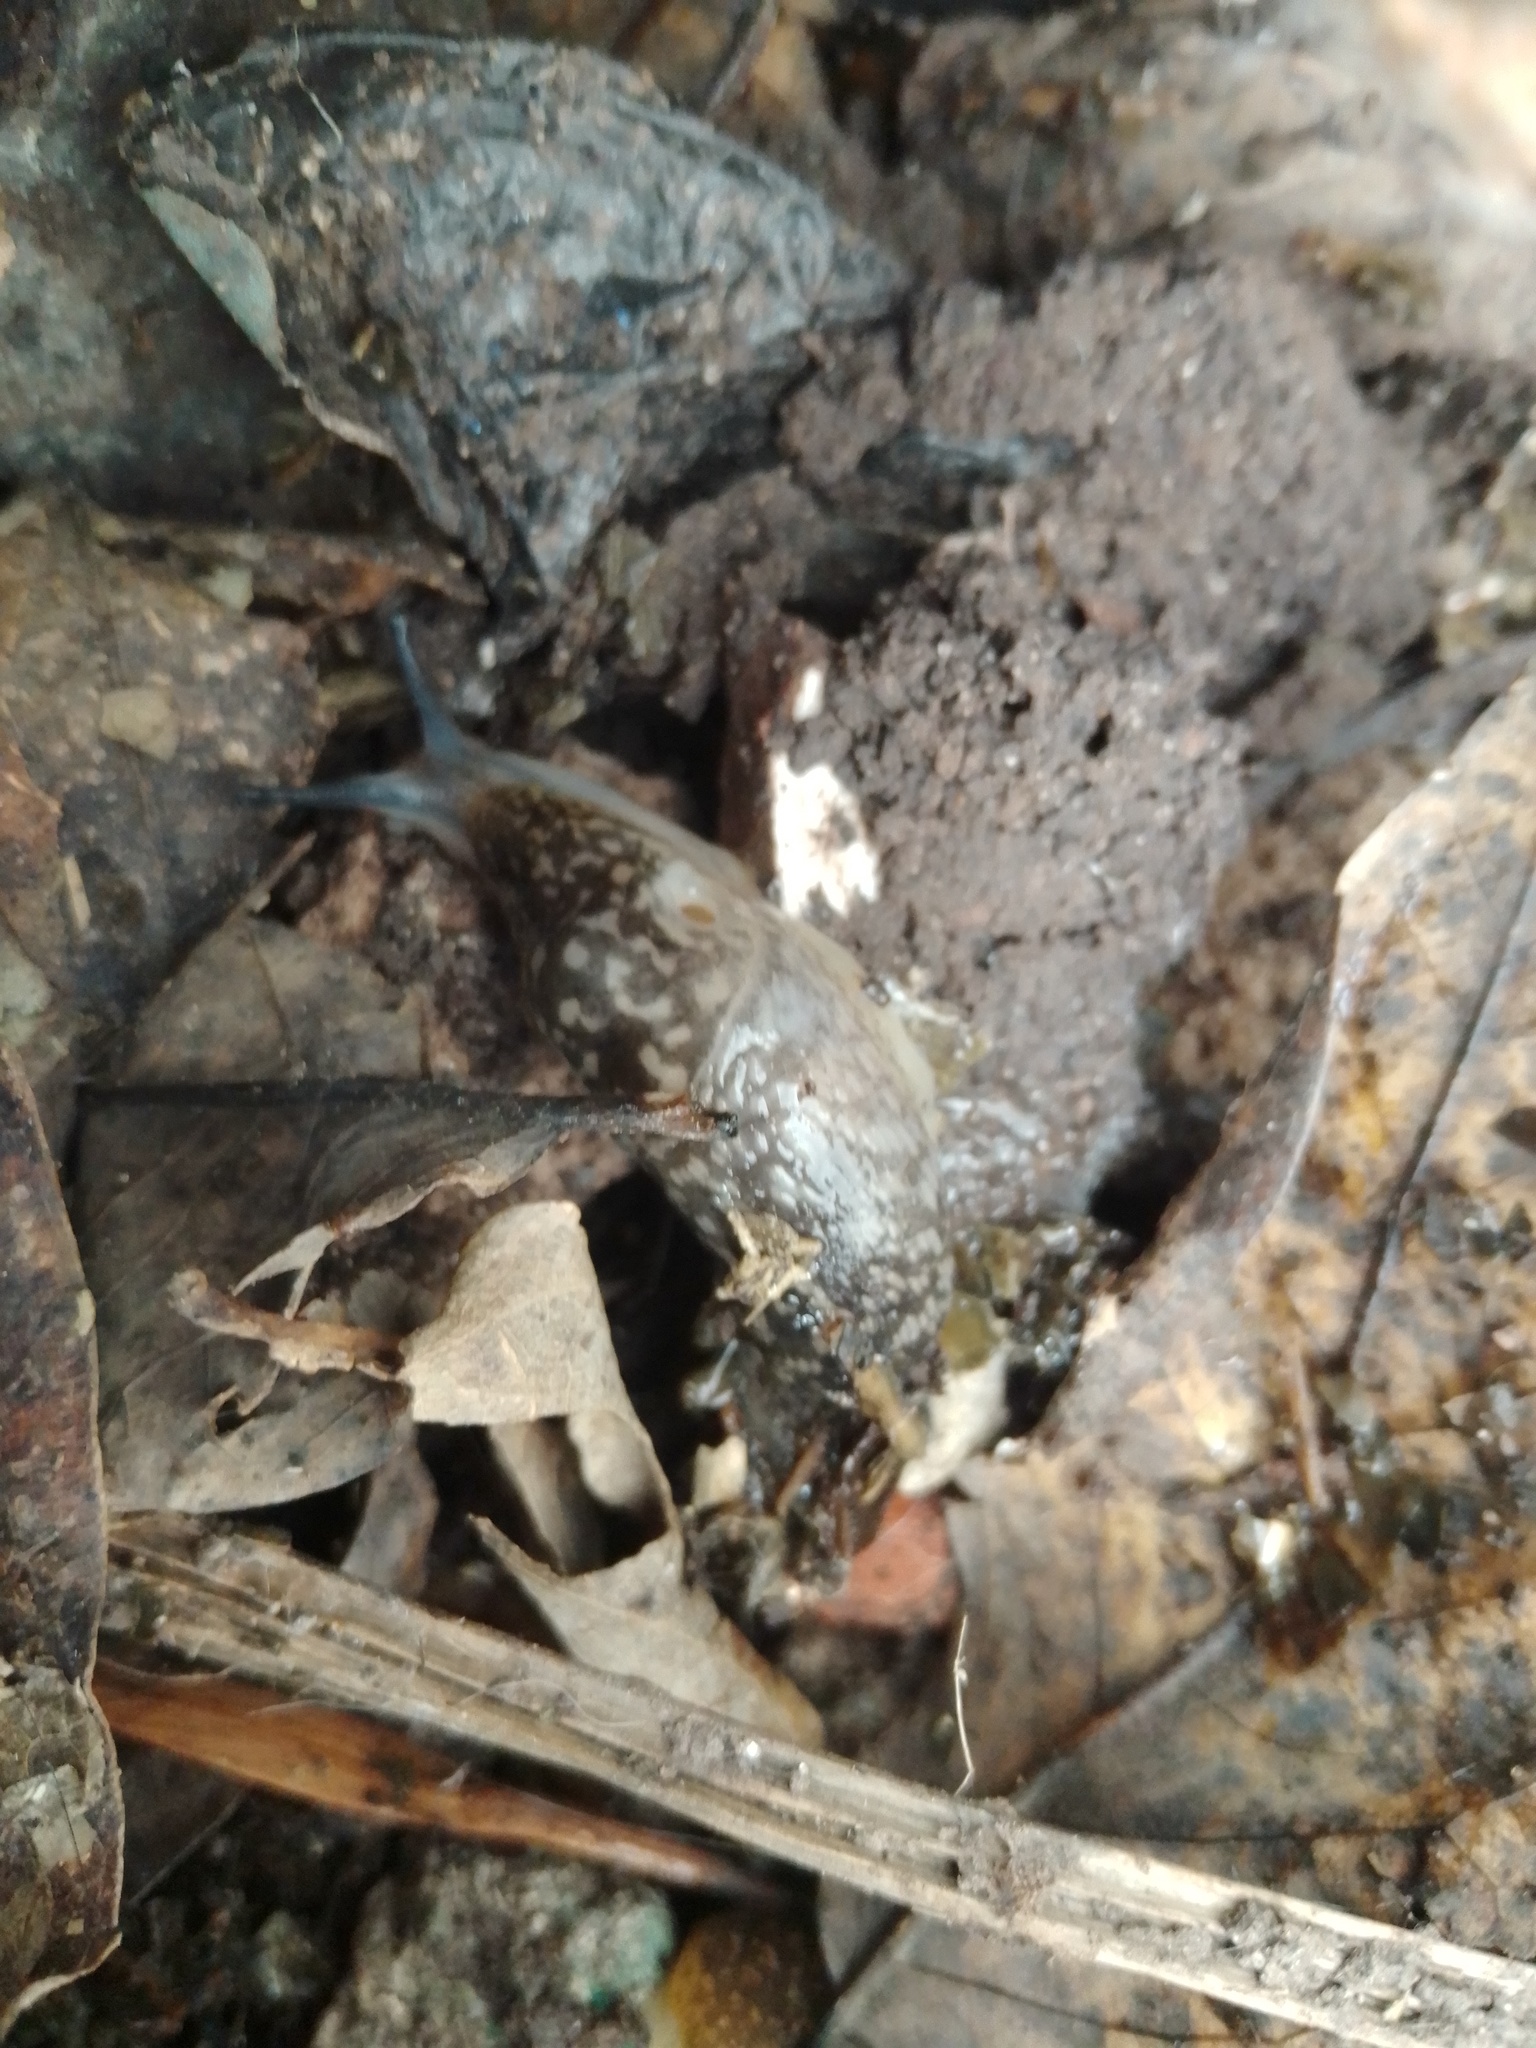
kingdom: Animalia
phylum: Mollusca
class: Gastropoda
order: Stylommatophora
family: Limacidae
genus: Limacus
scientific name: Limacus flavus
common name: Yellow gardenslug
